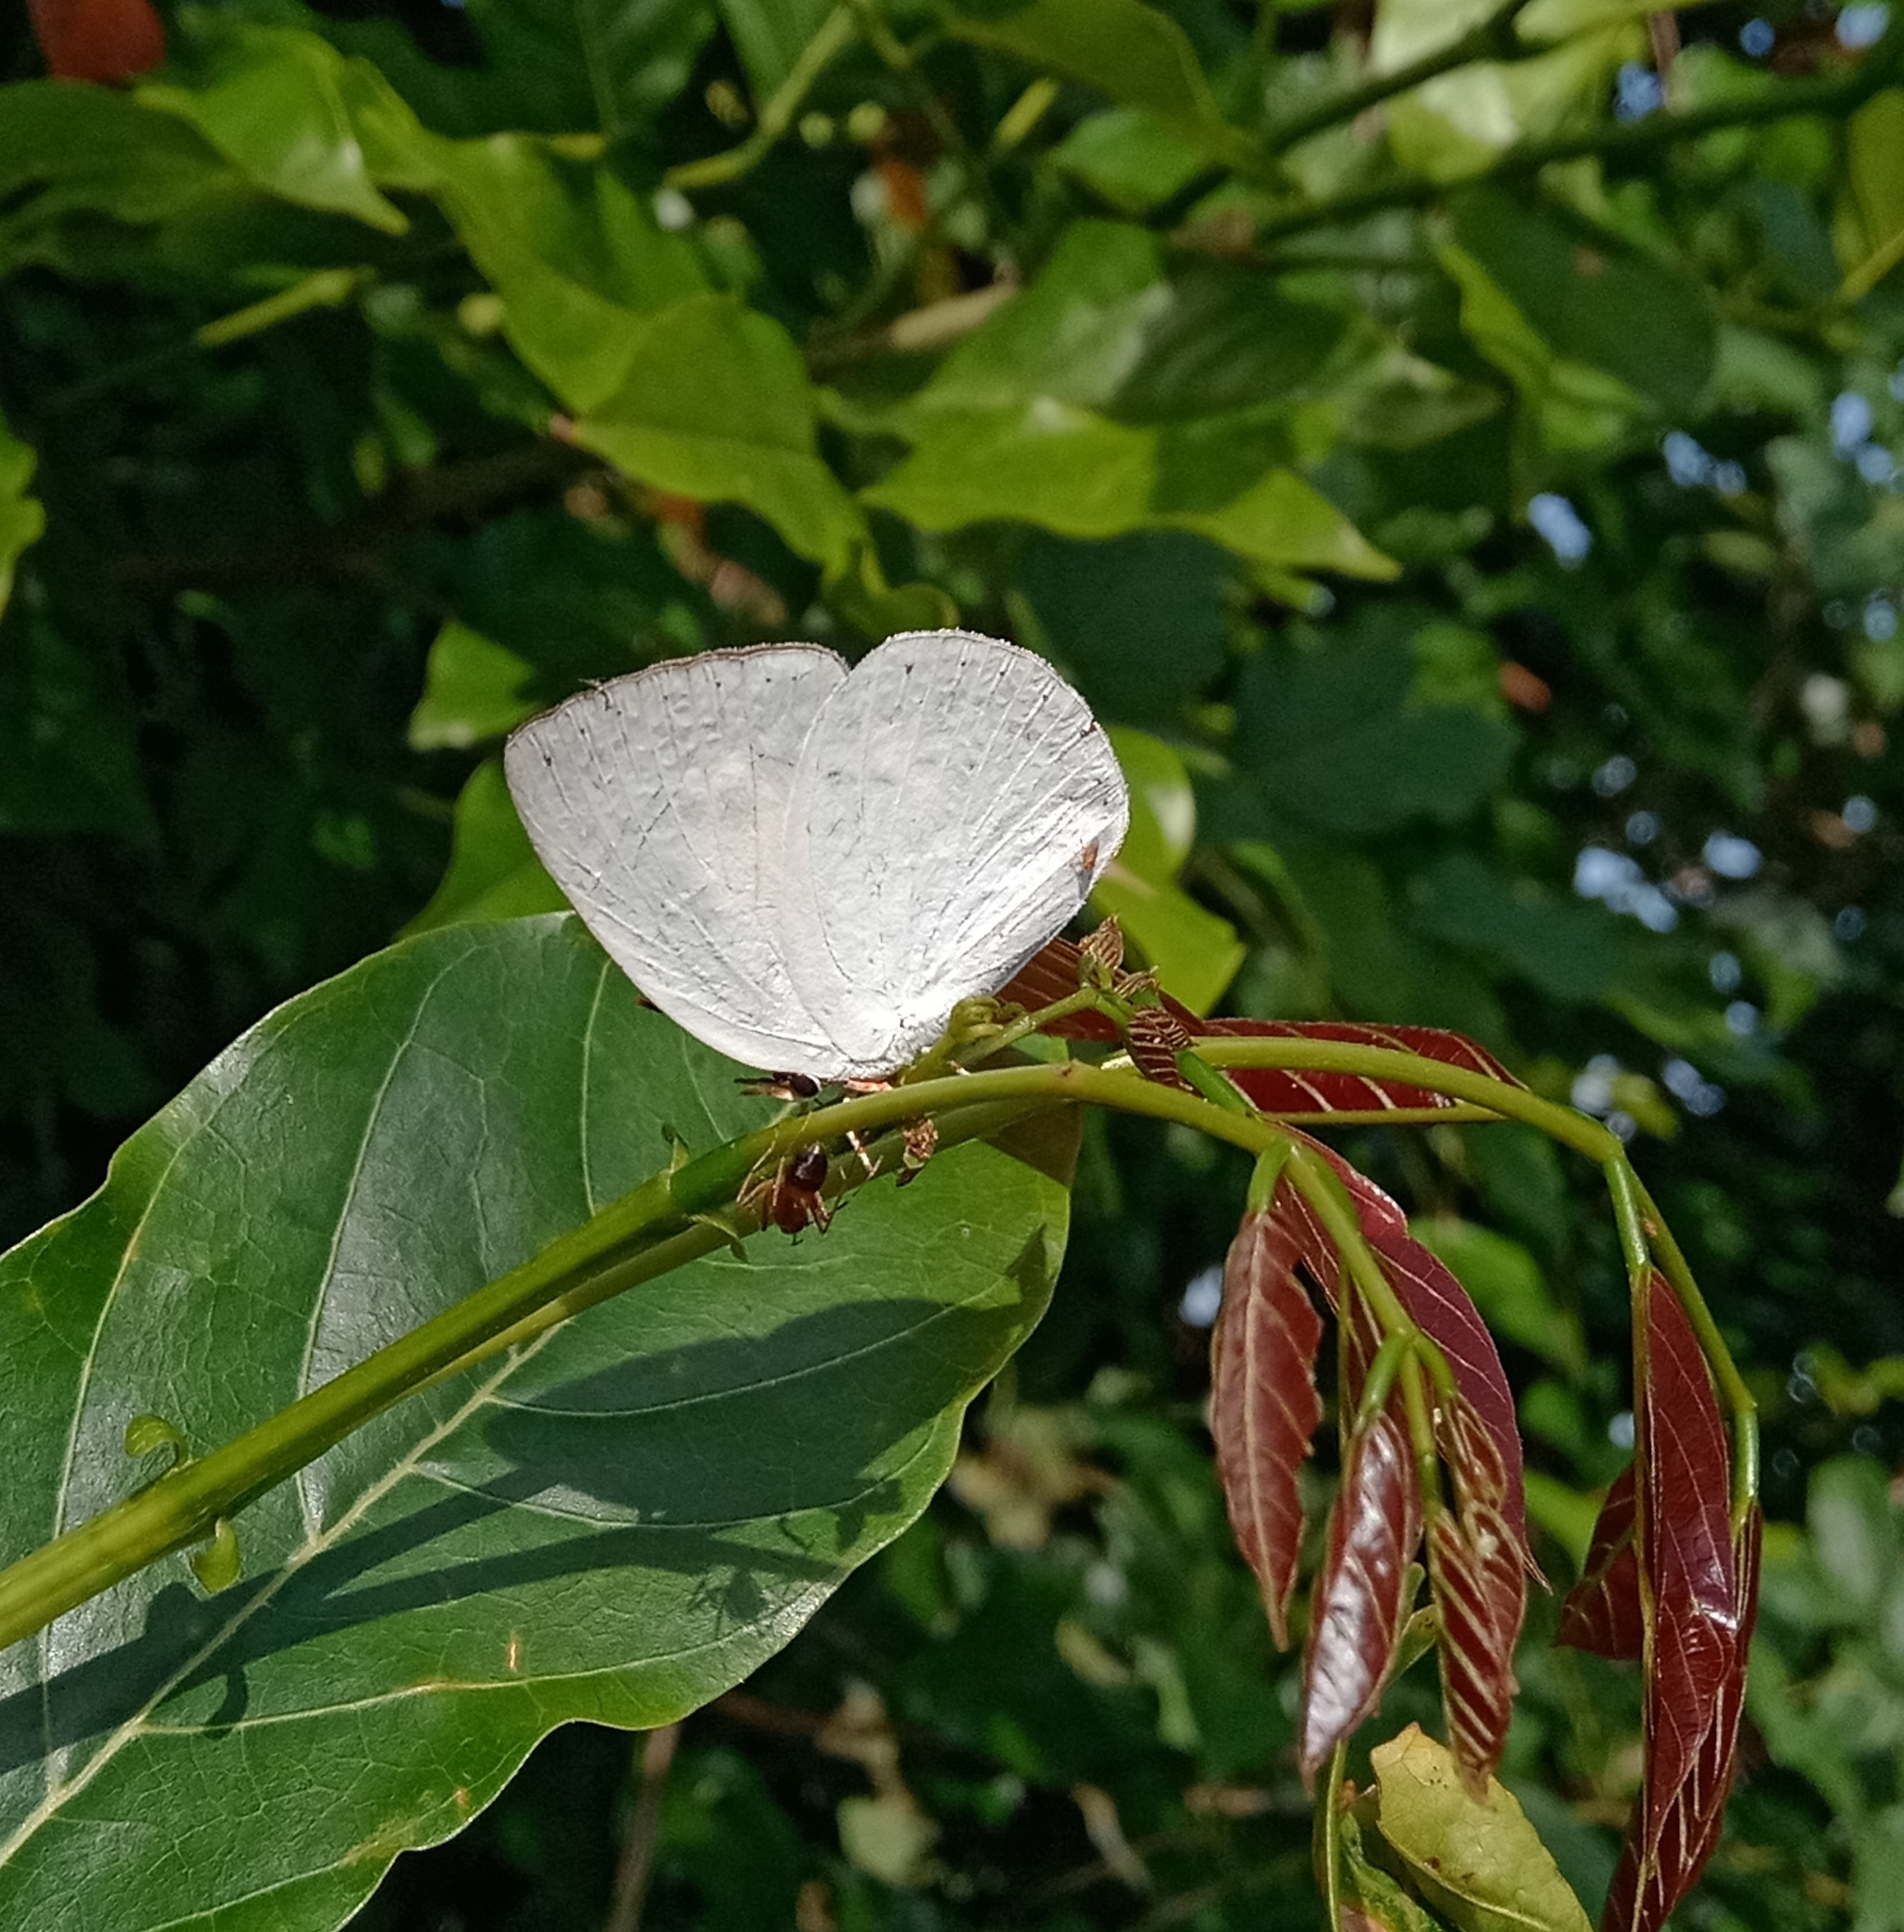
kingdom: Animalia
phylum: Arthropoda
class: Insecta
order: Lepidoptera
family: Lycaenidae
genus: Curetis
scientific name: Curetis thetis
